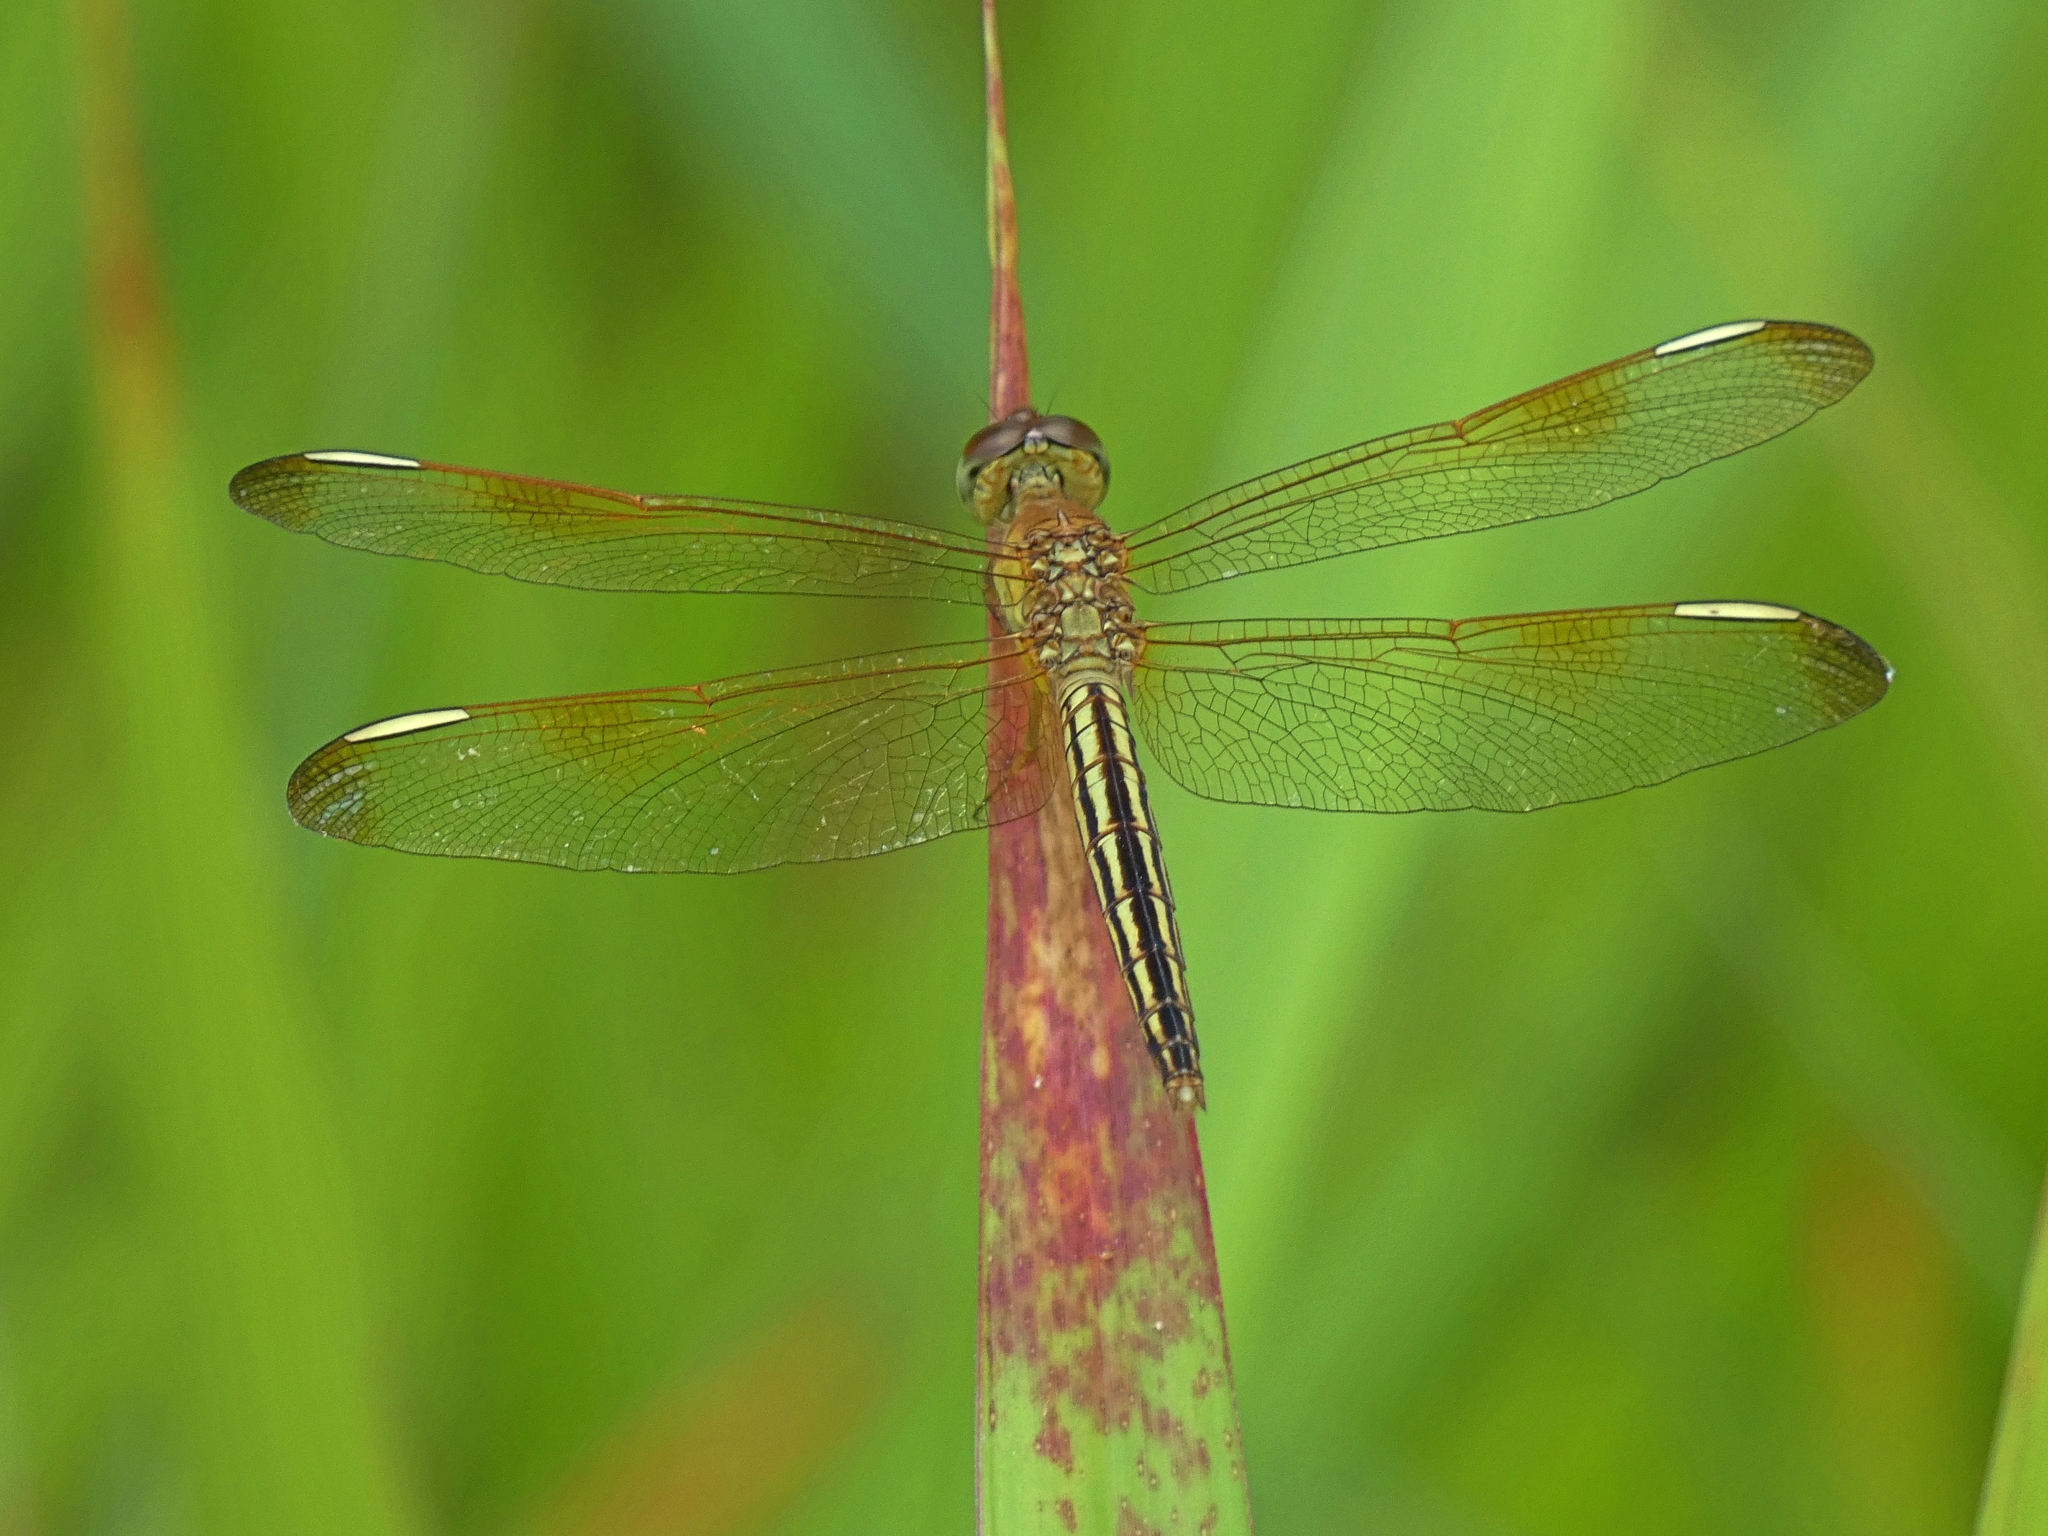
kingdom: Animalia
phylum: Arthropoda
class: Insecta
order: Odonata
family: Libellulidae
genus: Neurothemis
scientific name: Neurothemis stigmatizans
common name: Painted grasshawk
